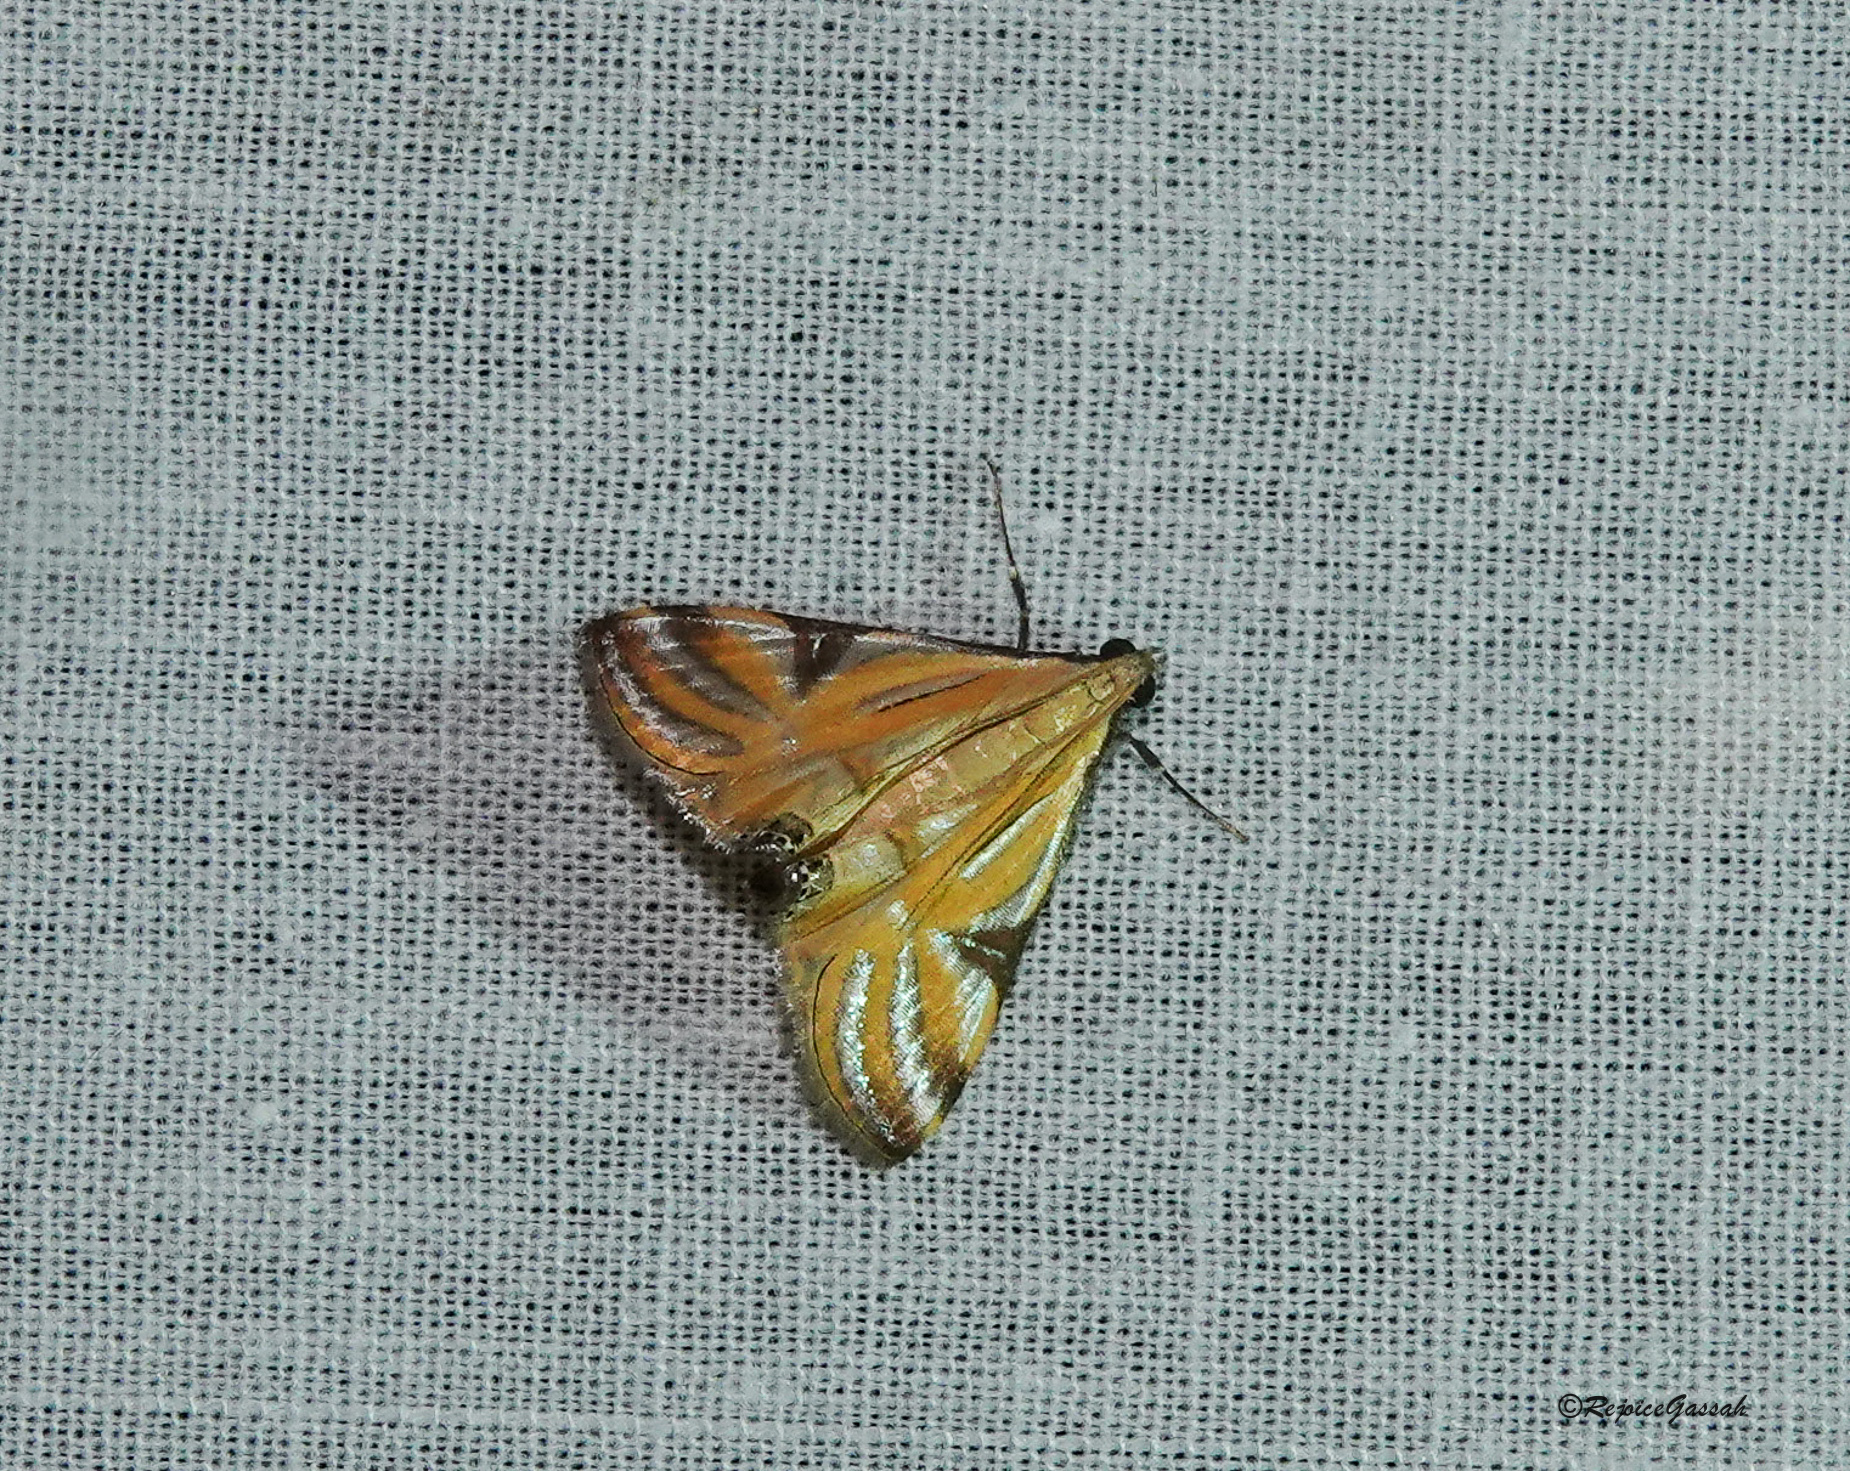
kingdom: Animalia
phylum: Arthropoda
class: Insecta
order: Lepidoptera
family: Crambidae
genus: Talanga
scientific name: Talanga sexpunctalis
